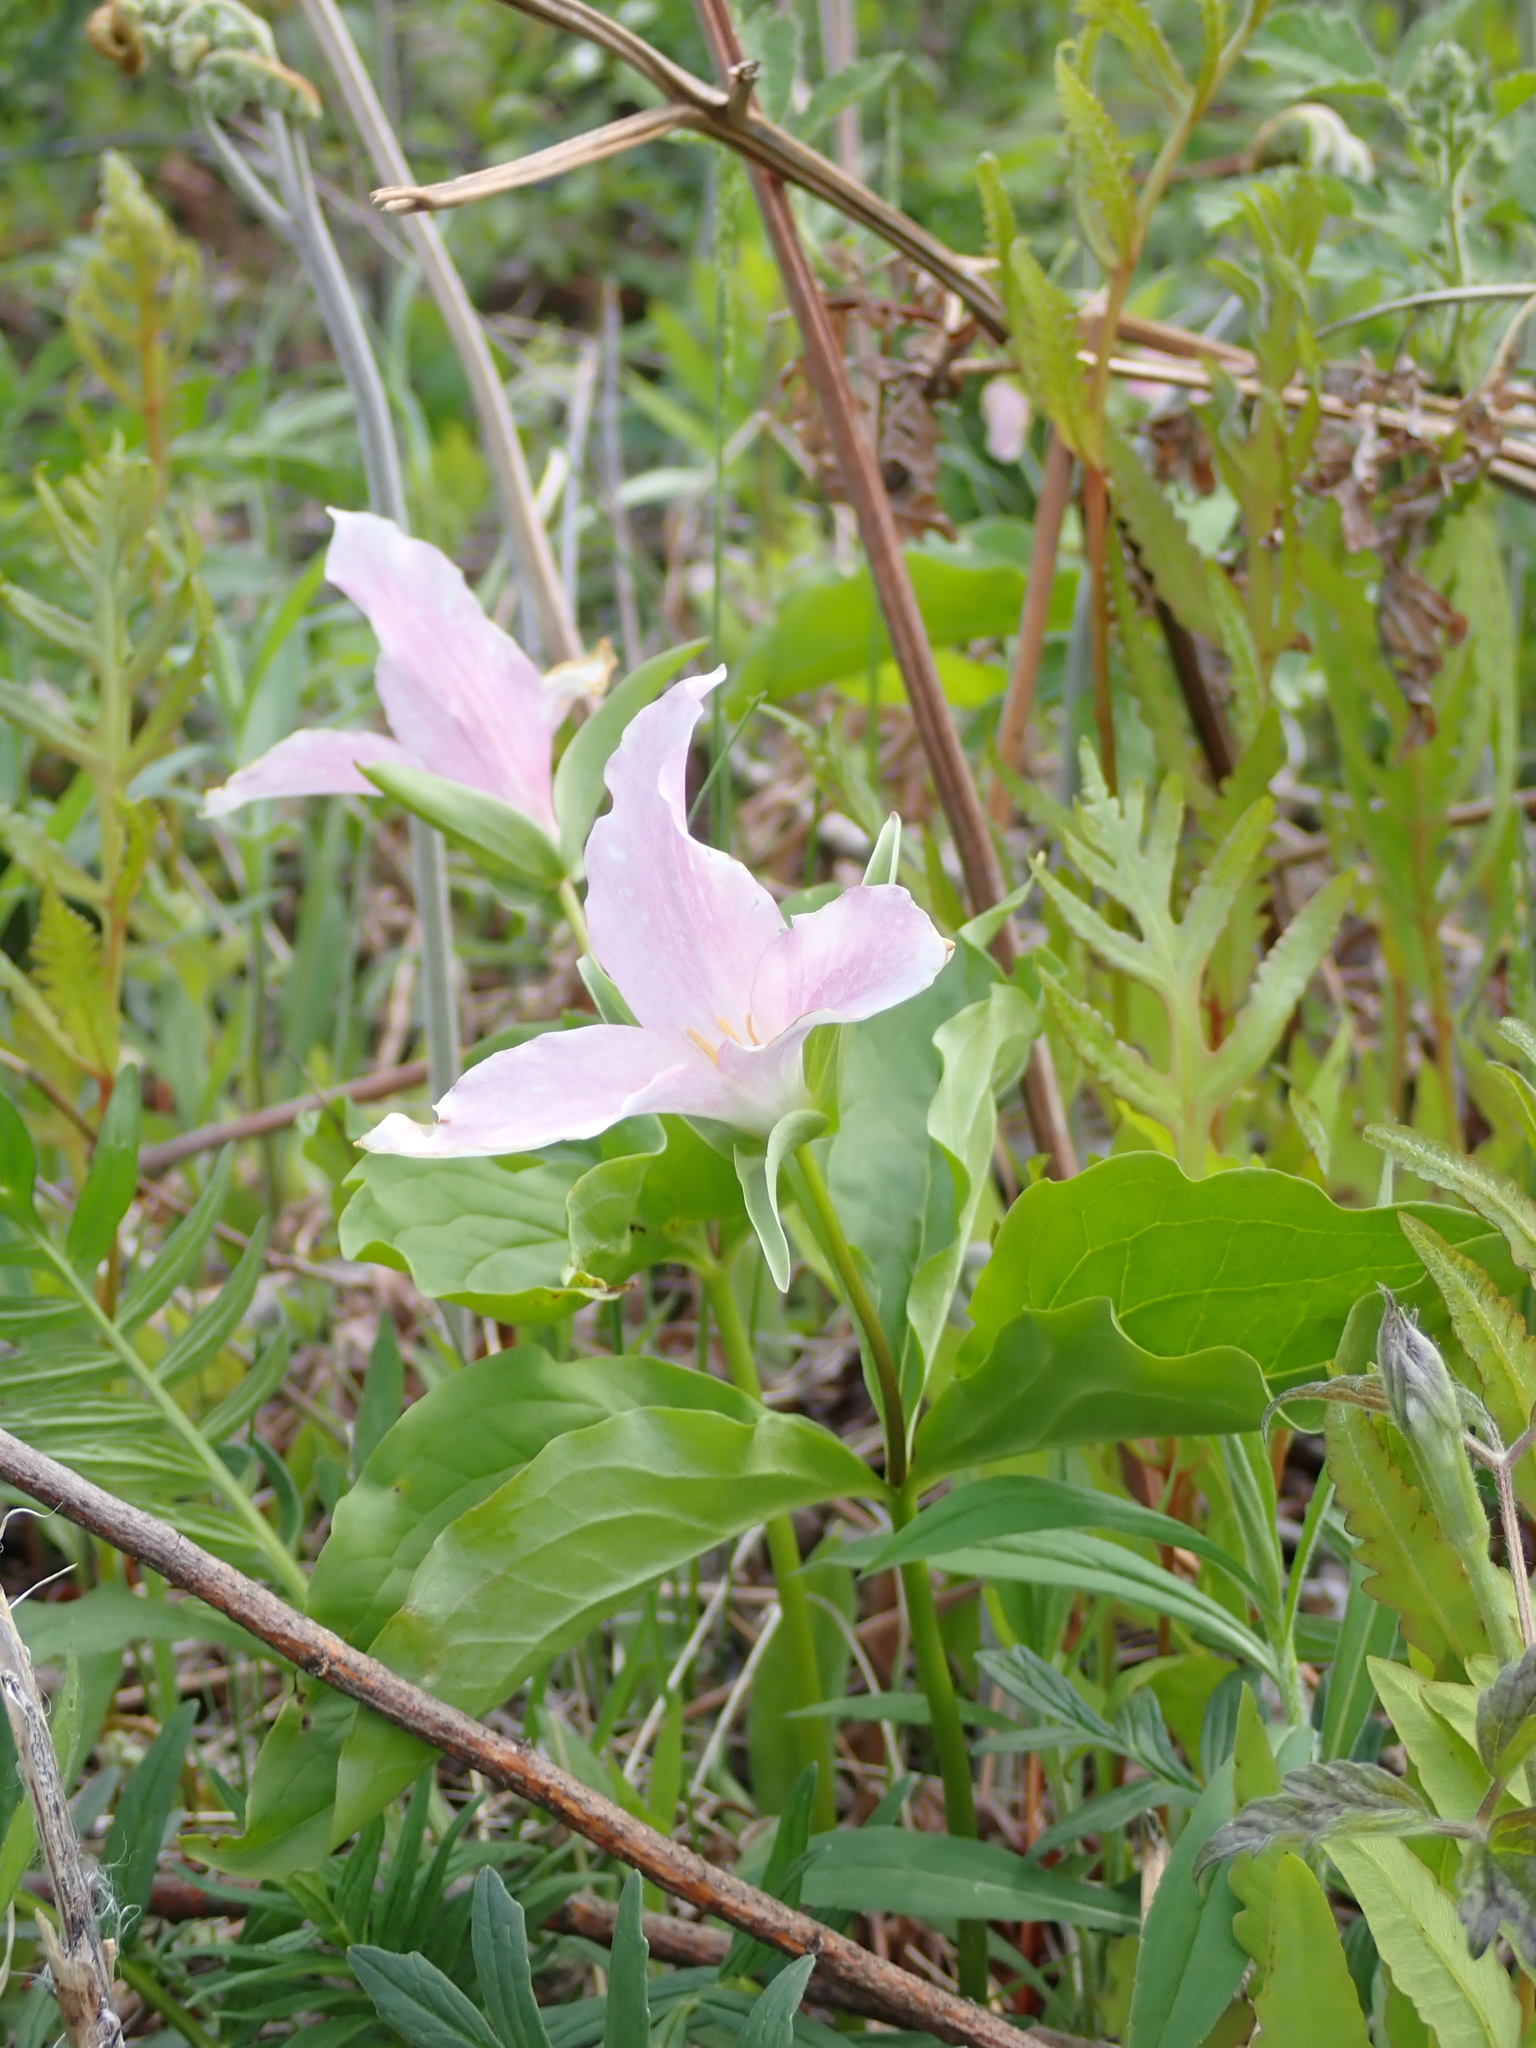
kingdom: Plantae
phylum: Tracheophyta
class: Liliopsida
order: Liliales
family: Melanthiaceae
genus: Trillium
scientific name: Trillium grandiflorum
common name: Great white trillium
